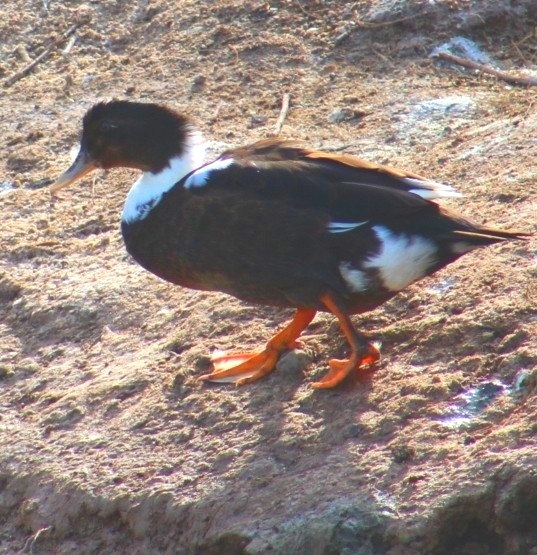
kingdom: Animalia
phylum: Chordata
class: Aves
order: Anseriformes
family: Anatidae
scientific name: Anatidae
